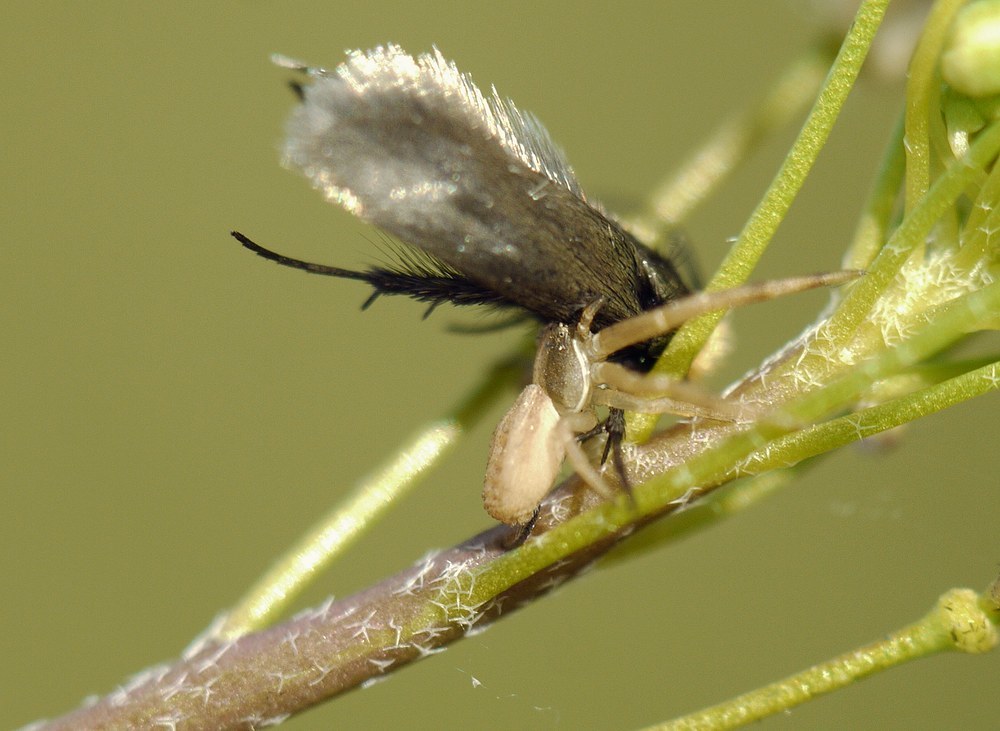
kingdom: Animalia
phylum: Arthropoda
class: Arachnida
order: Araneae
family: Thomisidae
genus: Runcinia
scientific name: Runcinia grammica
